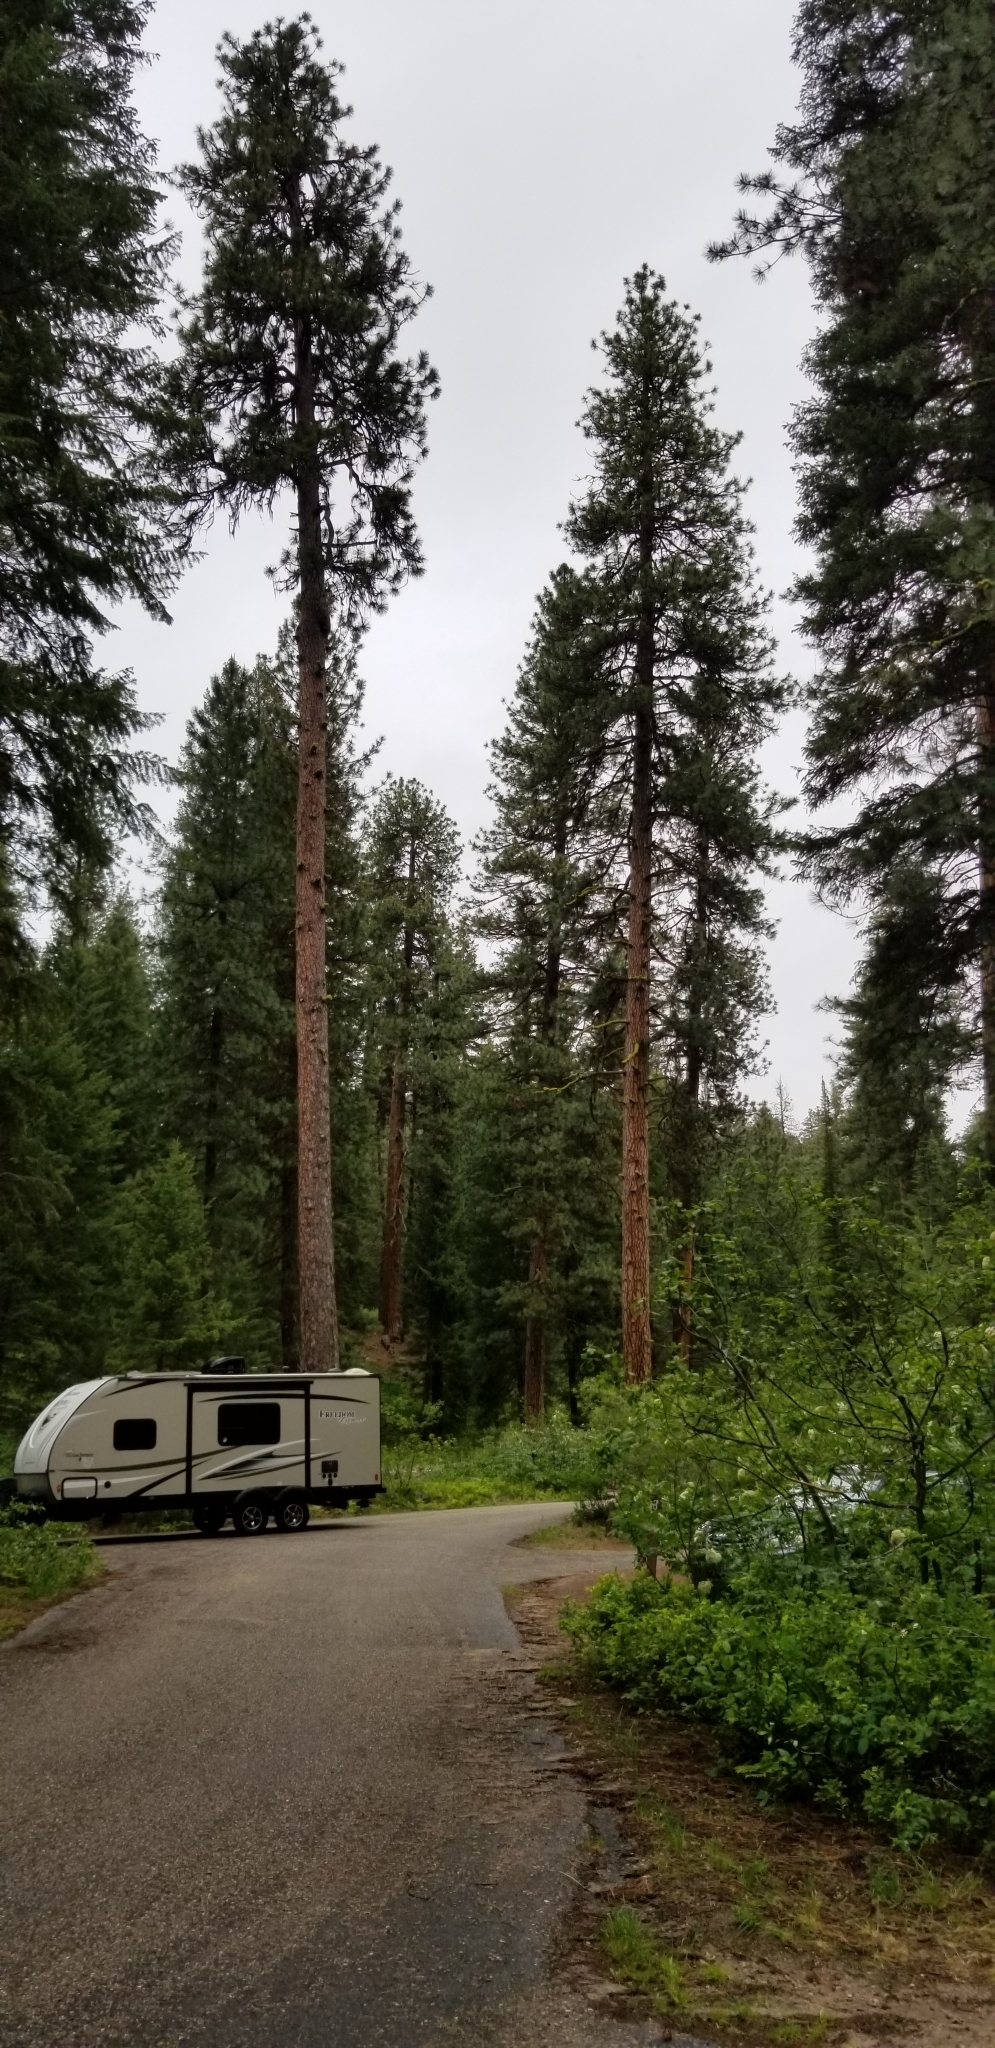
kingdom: Plantae
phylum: Tracheophyta
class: Pinopsida
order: Pinales
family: Pinaceae
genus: Pinus
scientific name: Pinus ponderosa
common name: Western yellow-pine
